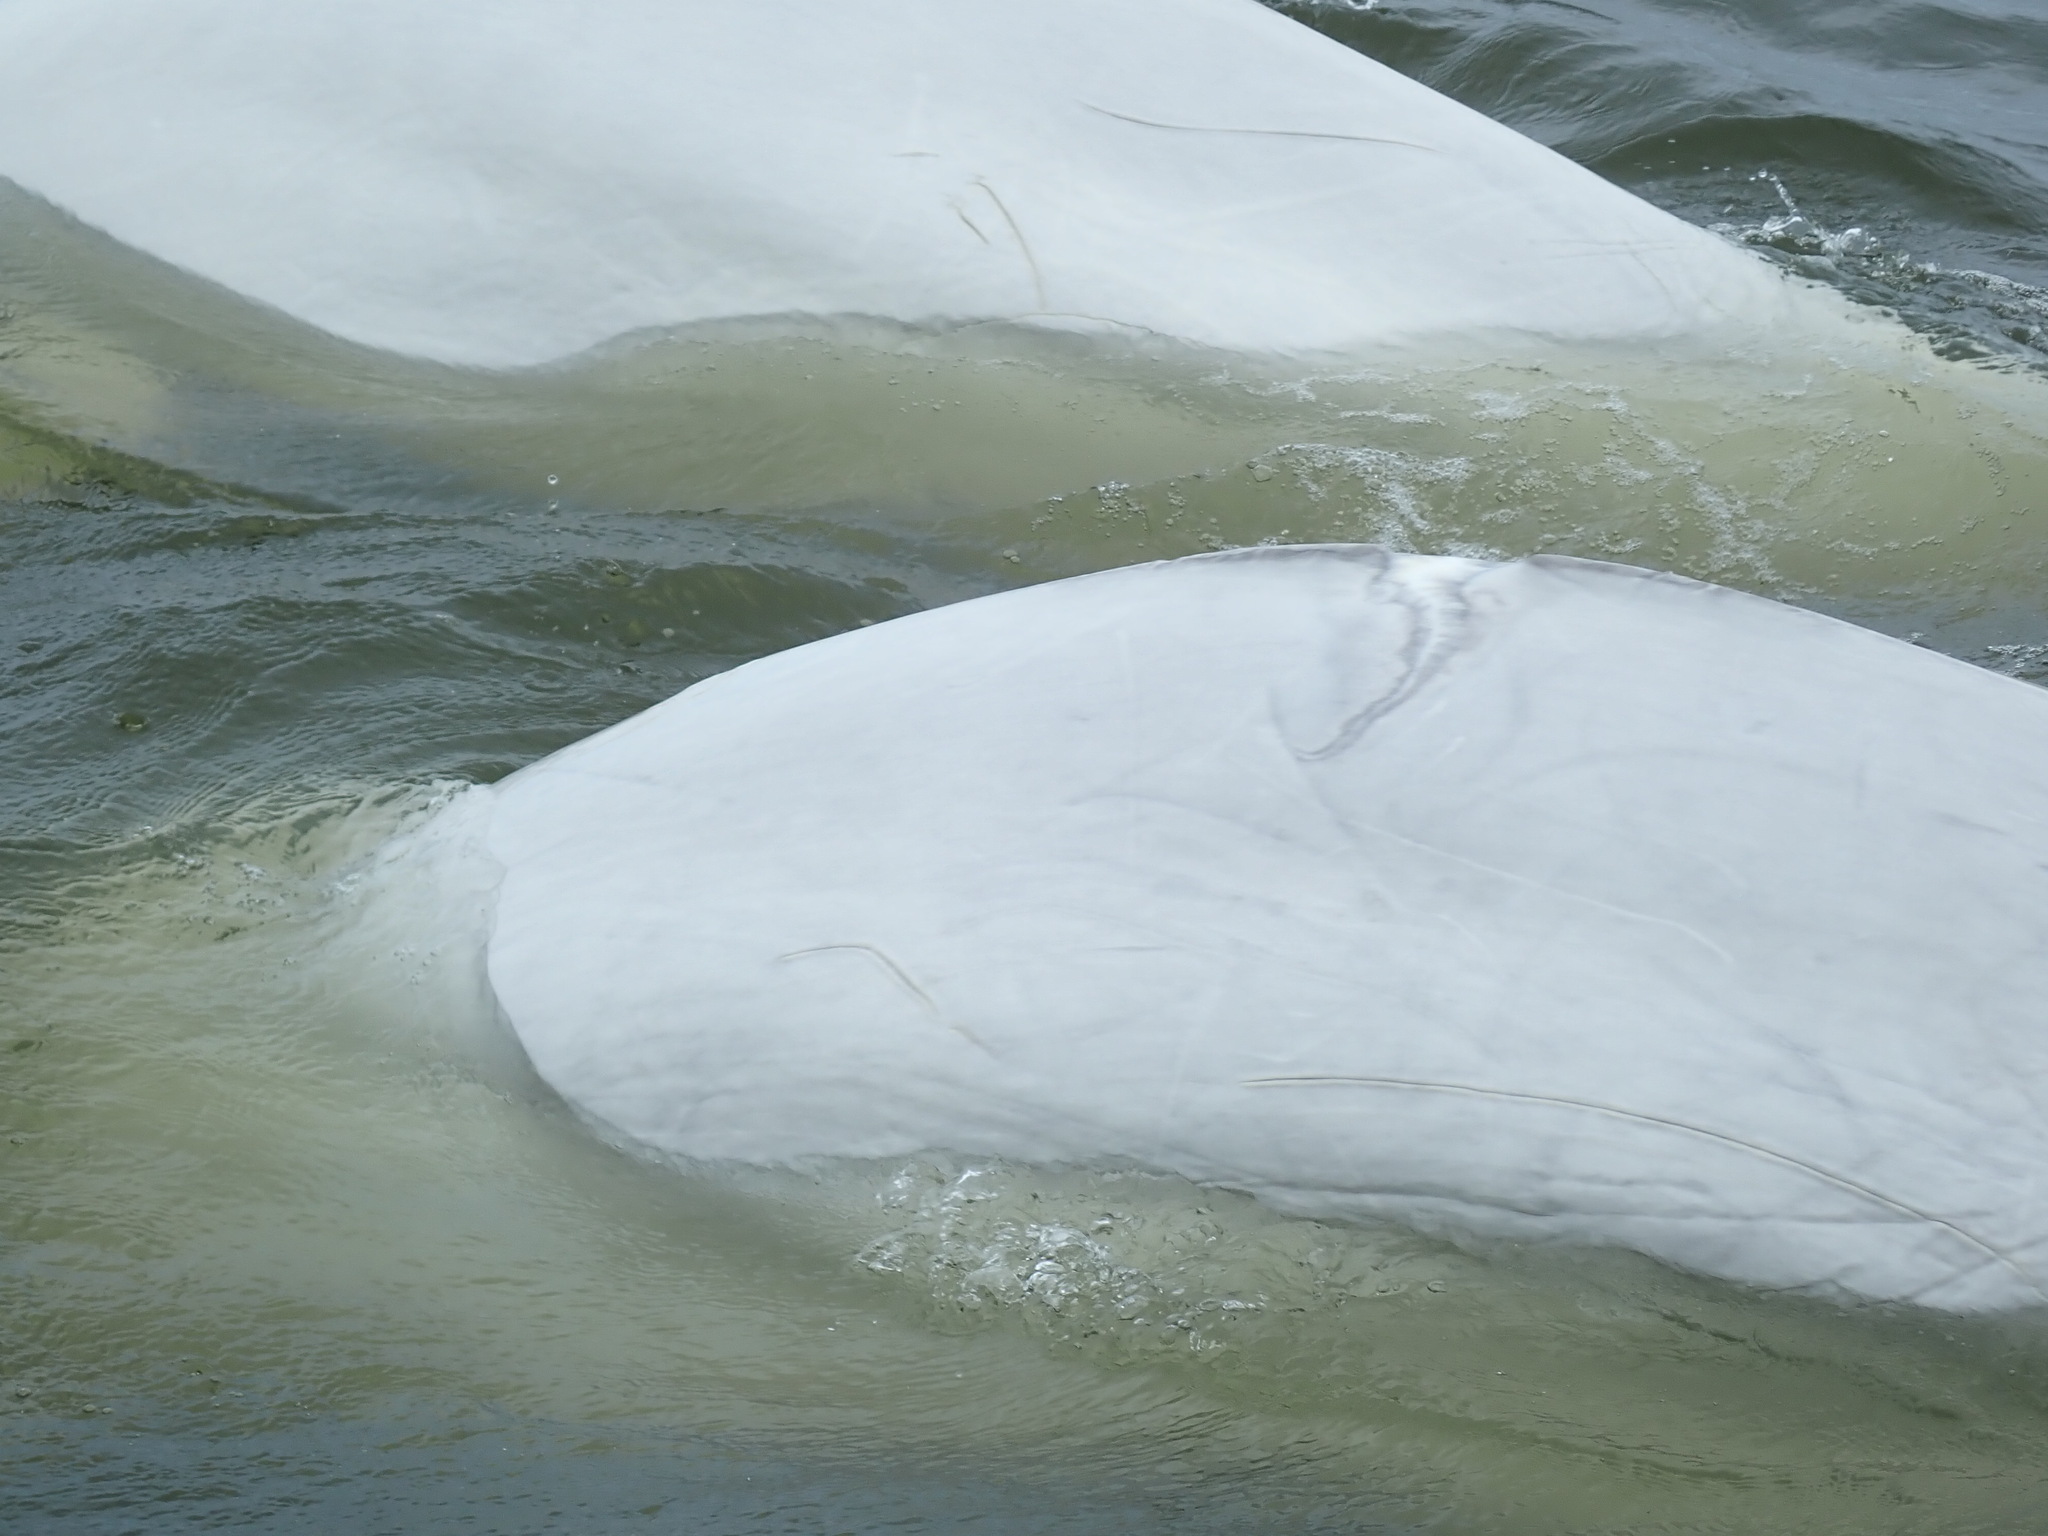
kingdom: Animalia
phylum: Chordata
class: Mammalia
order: Cetacea
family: Monodontidae
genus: Delphinapterus
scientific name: Delphinapterus leucas
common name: Beluga
